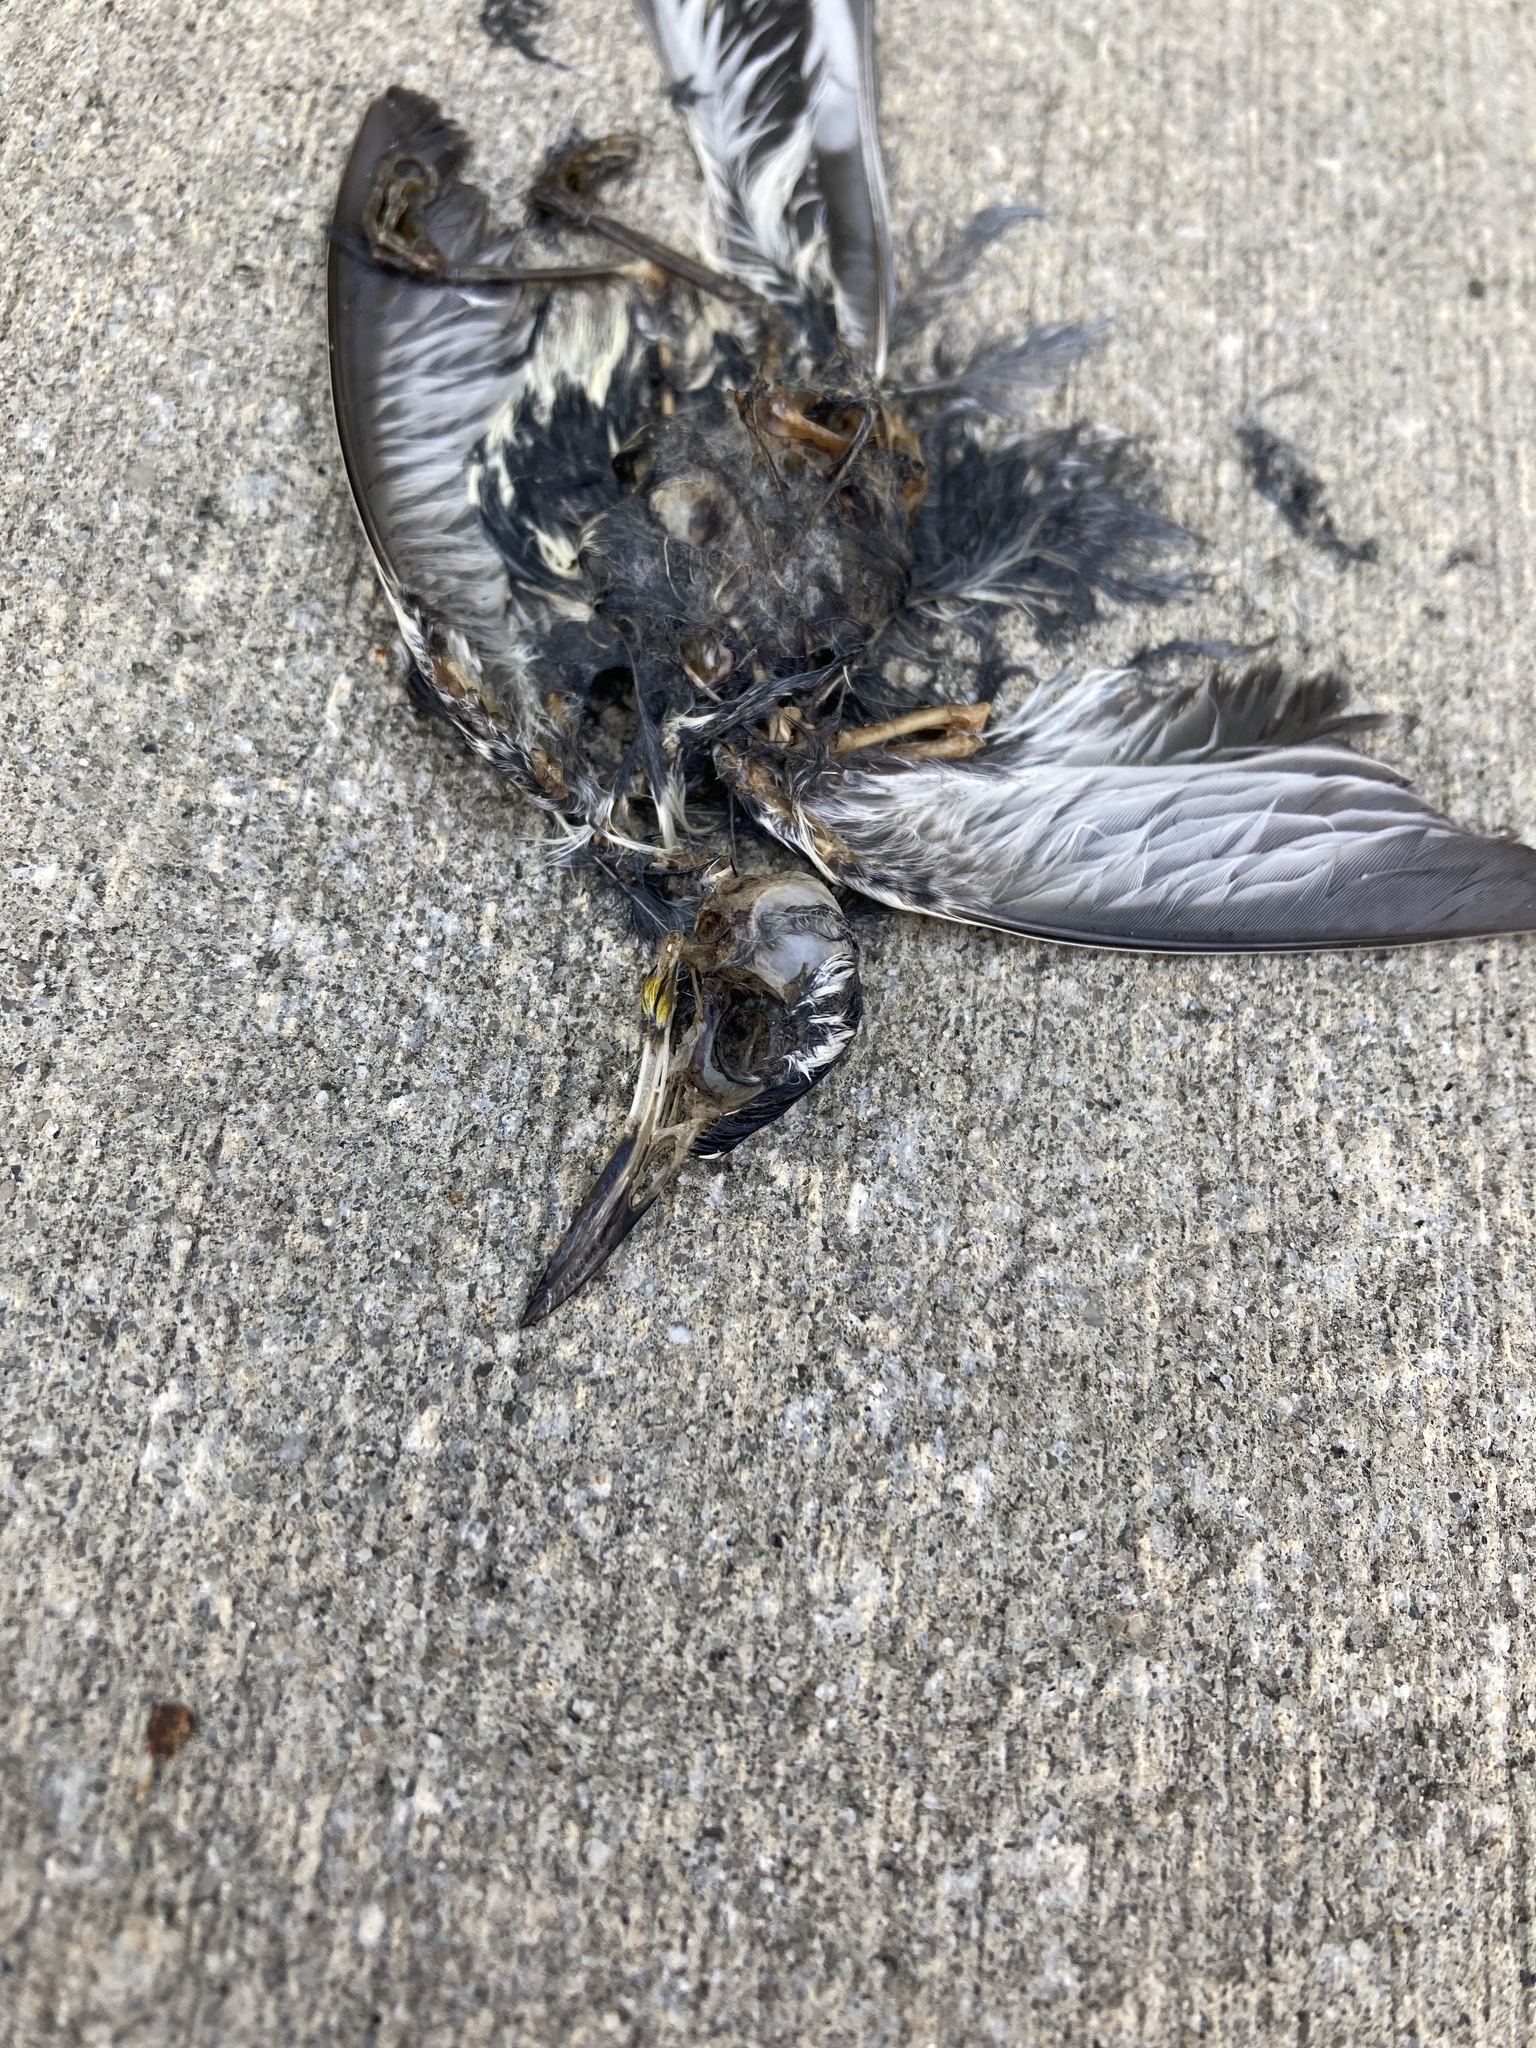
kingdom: Animalia
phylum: Chordata
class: Aves
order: Passeriformes
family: Parulidae
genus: Setophaga
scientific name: Setophaga dominica
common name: Yellow-throated warbler
